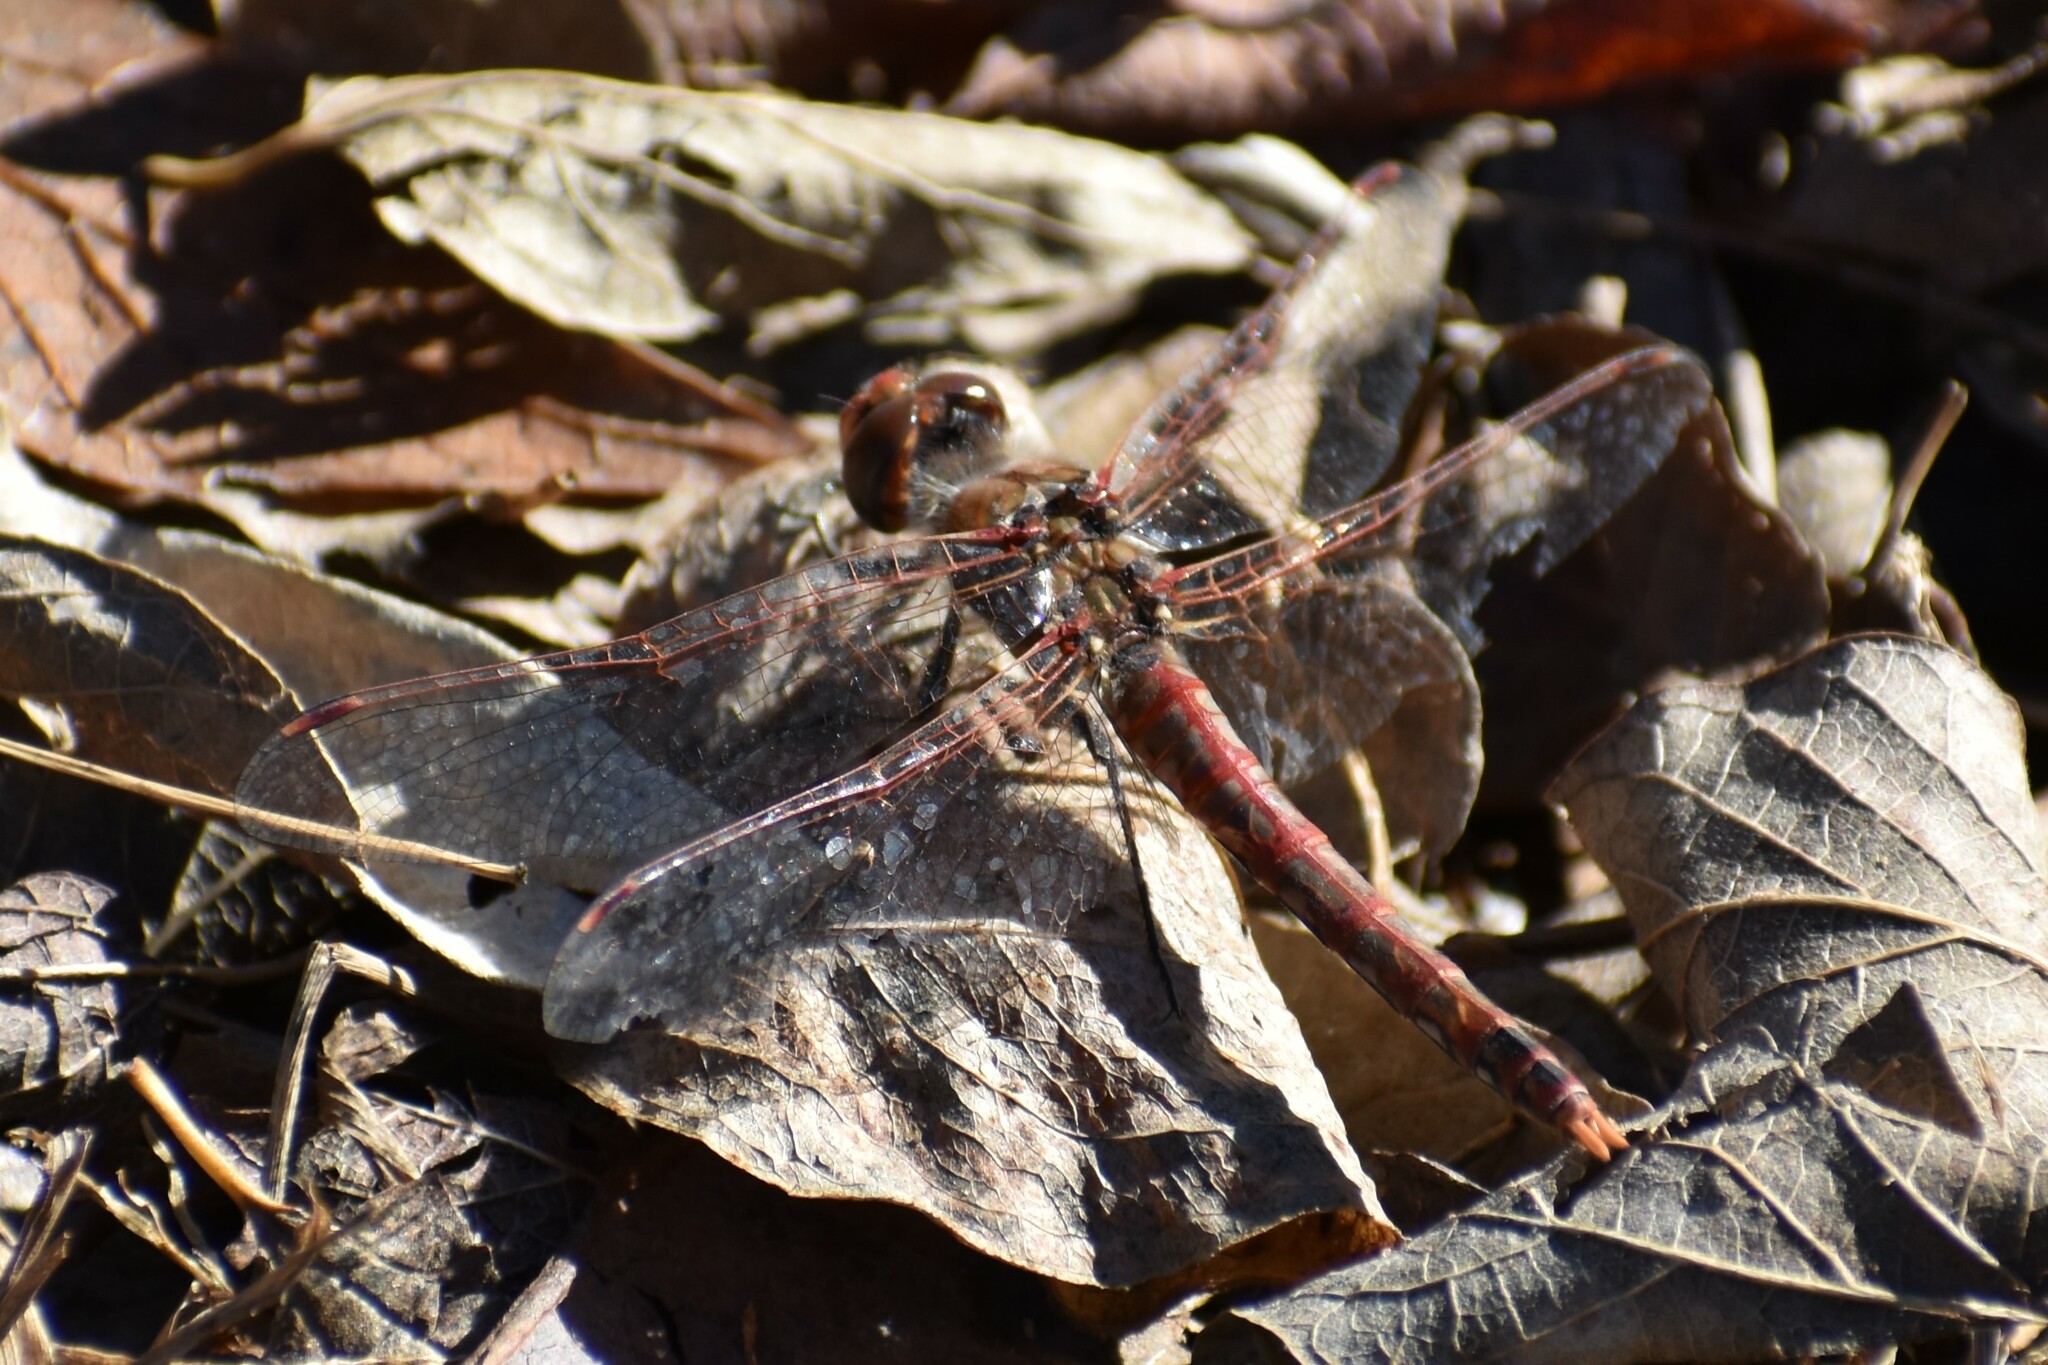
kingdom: Animalia
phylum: Arthropoda
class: Insecta
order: Odonata
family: Libellulidae
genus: Sympetrum
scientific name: Sympetrum corruptum
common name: Variegated meadowhawk
